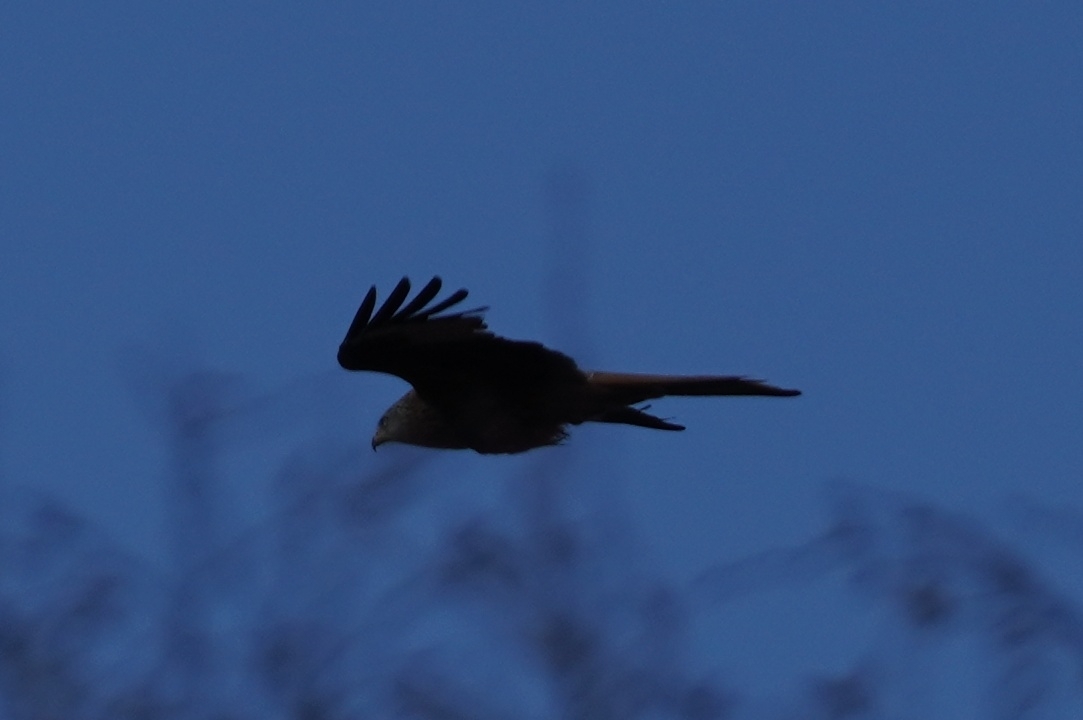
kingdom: Animalia
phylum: Chordata
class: Aves
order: Accipitriformes
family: Accipitridae
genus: Milvus
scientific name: Milvus milvus
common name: Red kite
